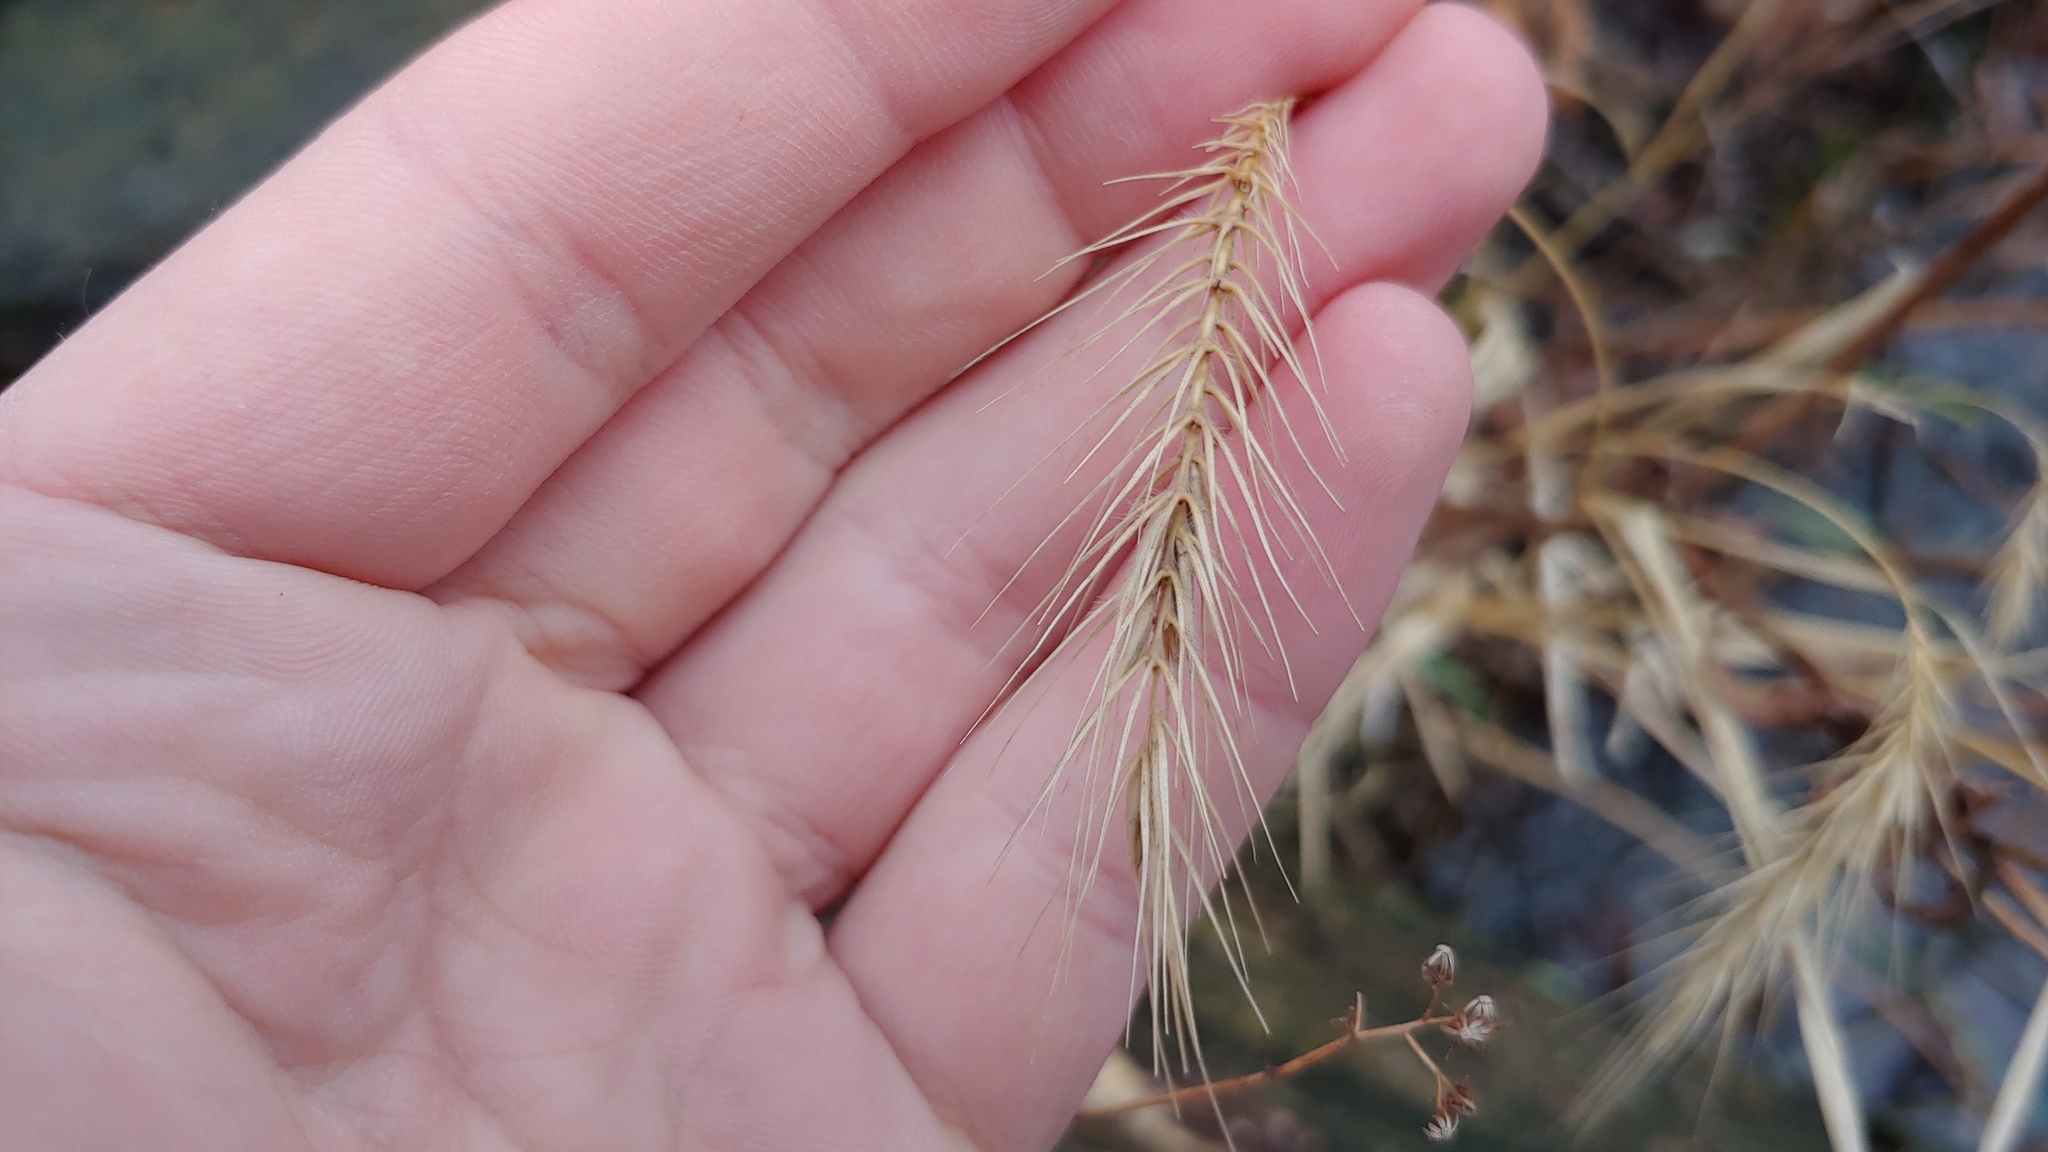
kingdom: Plantae
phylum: Tracheophyta
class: Liliopsida
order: Poales
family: Poaceae
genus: Elymus
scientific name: Elymus villosus
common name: Downy wild rye
